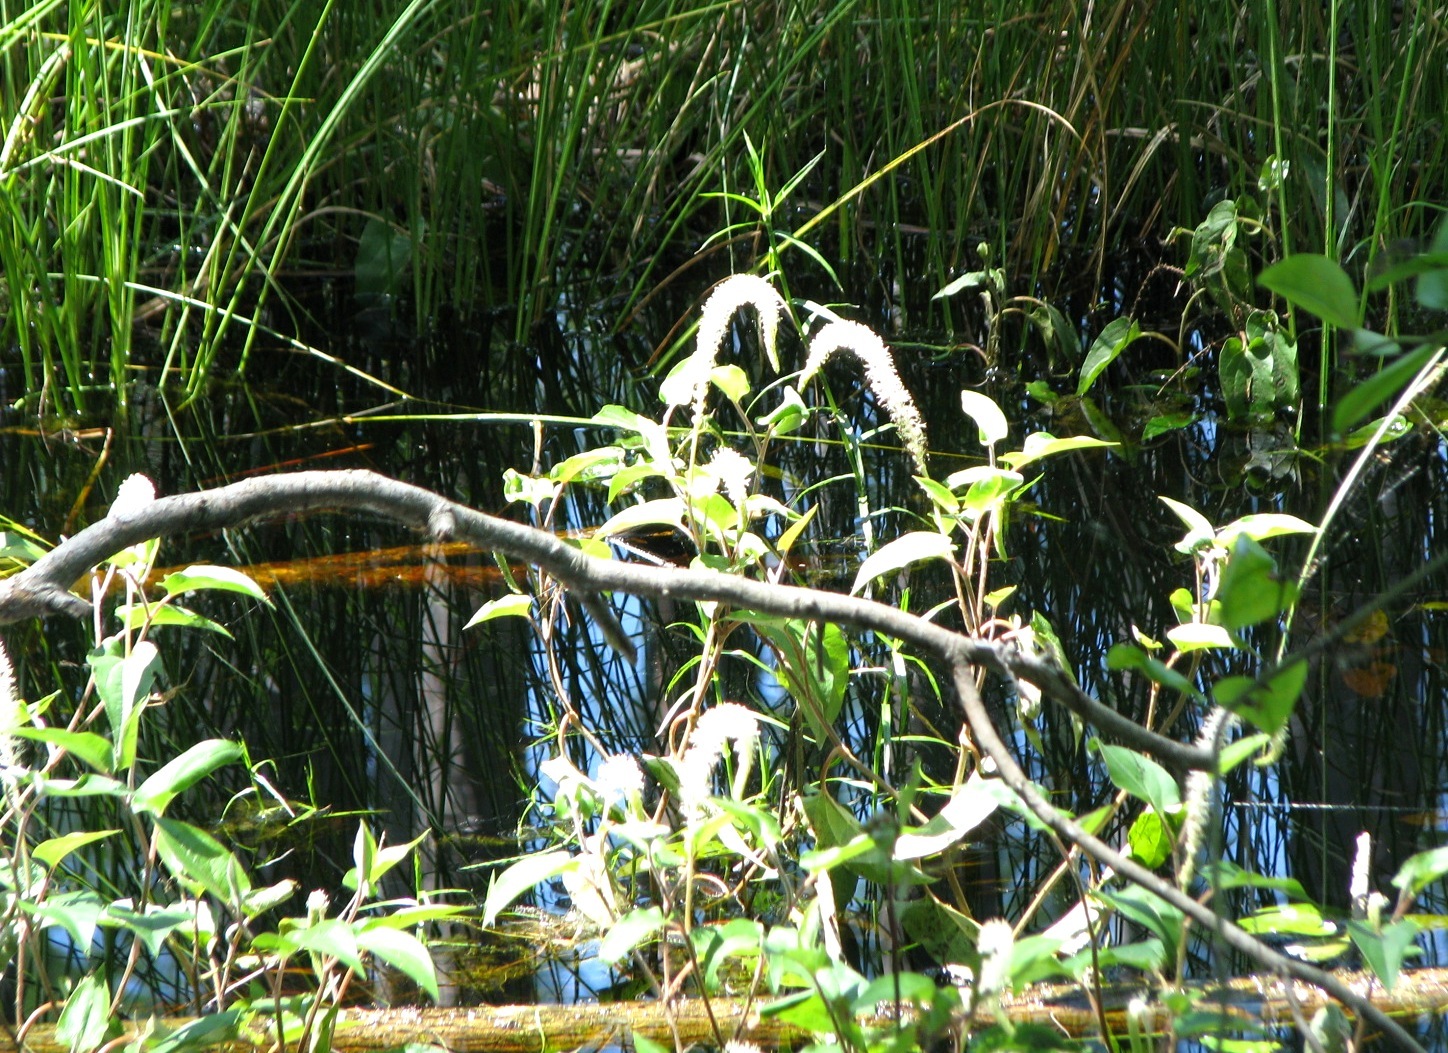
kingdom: Plantae
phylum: Tracheophyta
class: Magnoliopsida
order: Piperales
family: Saururaceae
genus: Saururus
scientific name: Saururus cernuus
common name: Lizard's-tail
